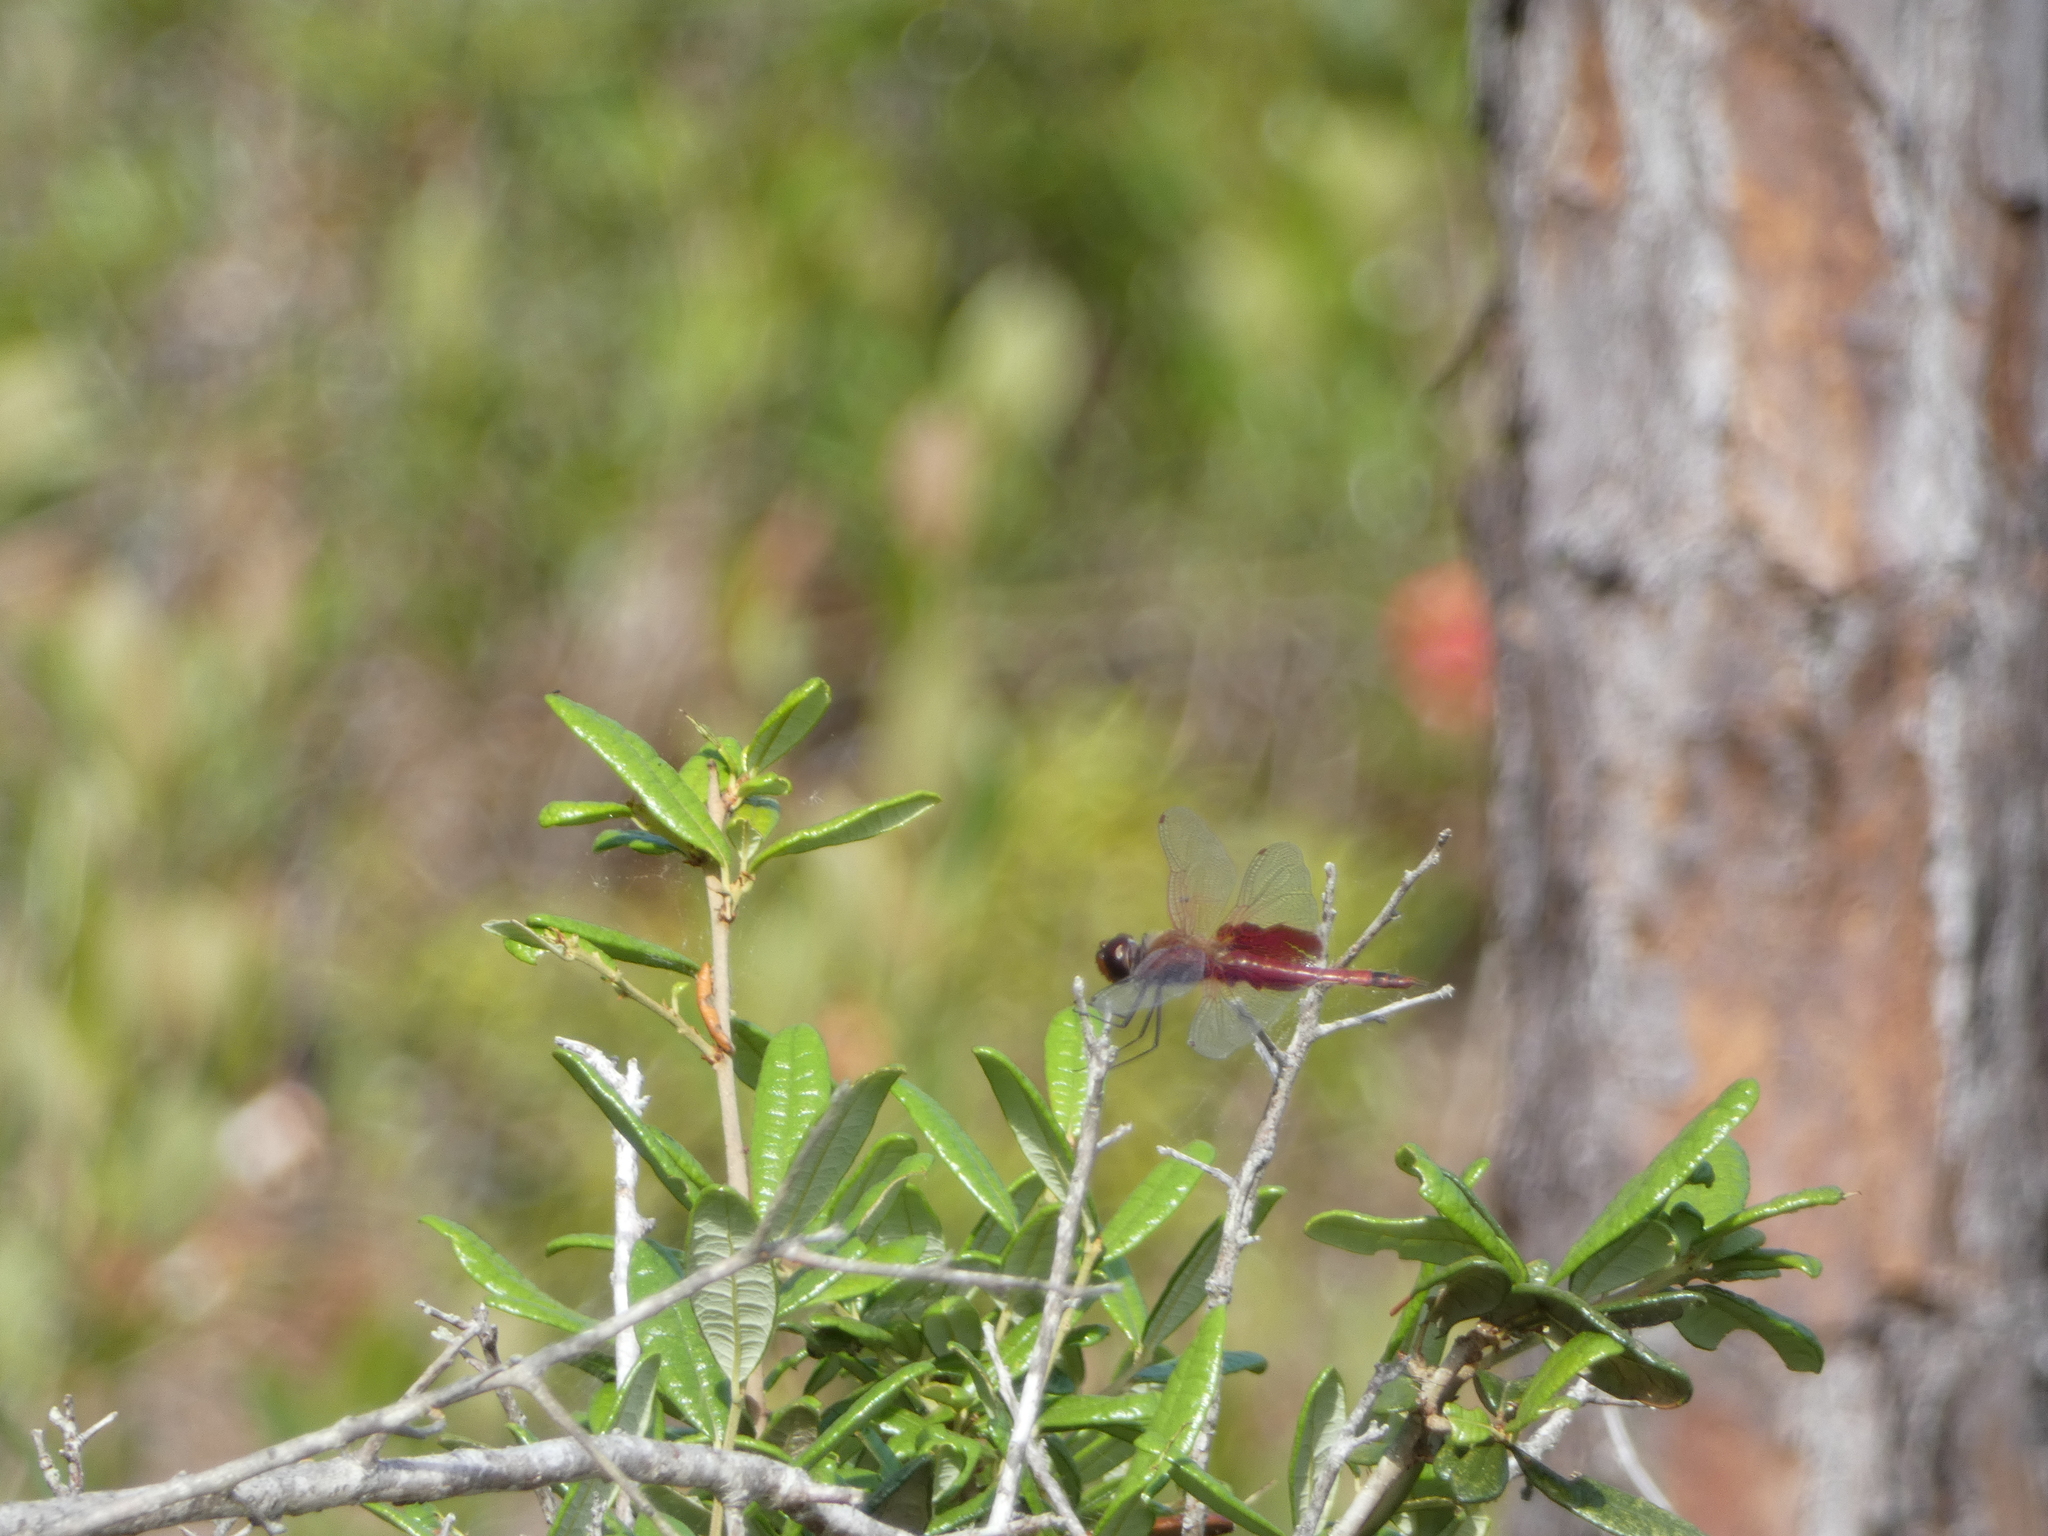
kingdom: Animalia
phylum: Arthropoda
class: Insecta
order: Odonata
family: Libellulidae
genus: Tramea
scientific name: Tramea carolina
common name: Carolina saddlebags
